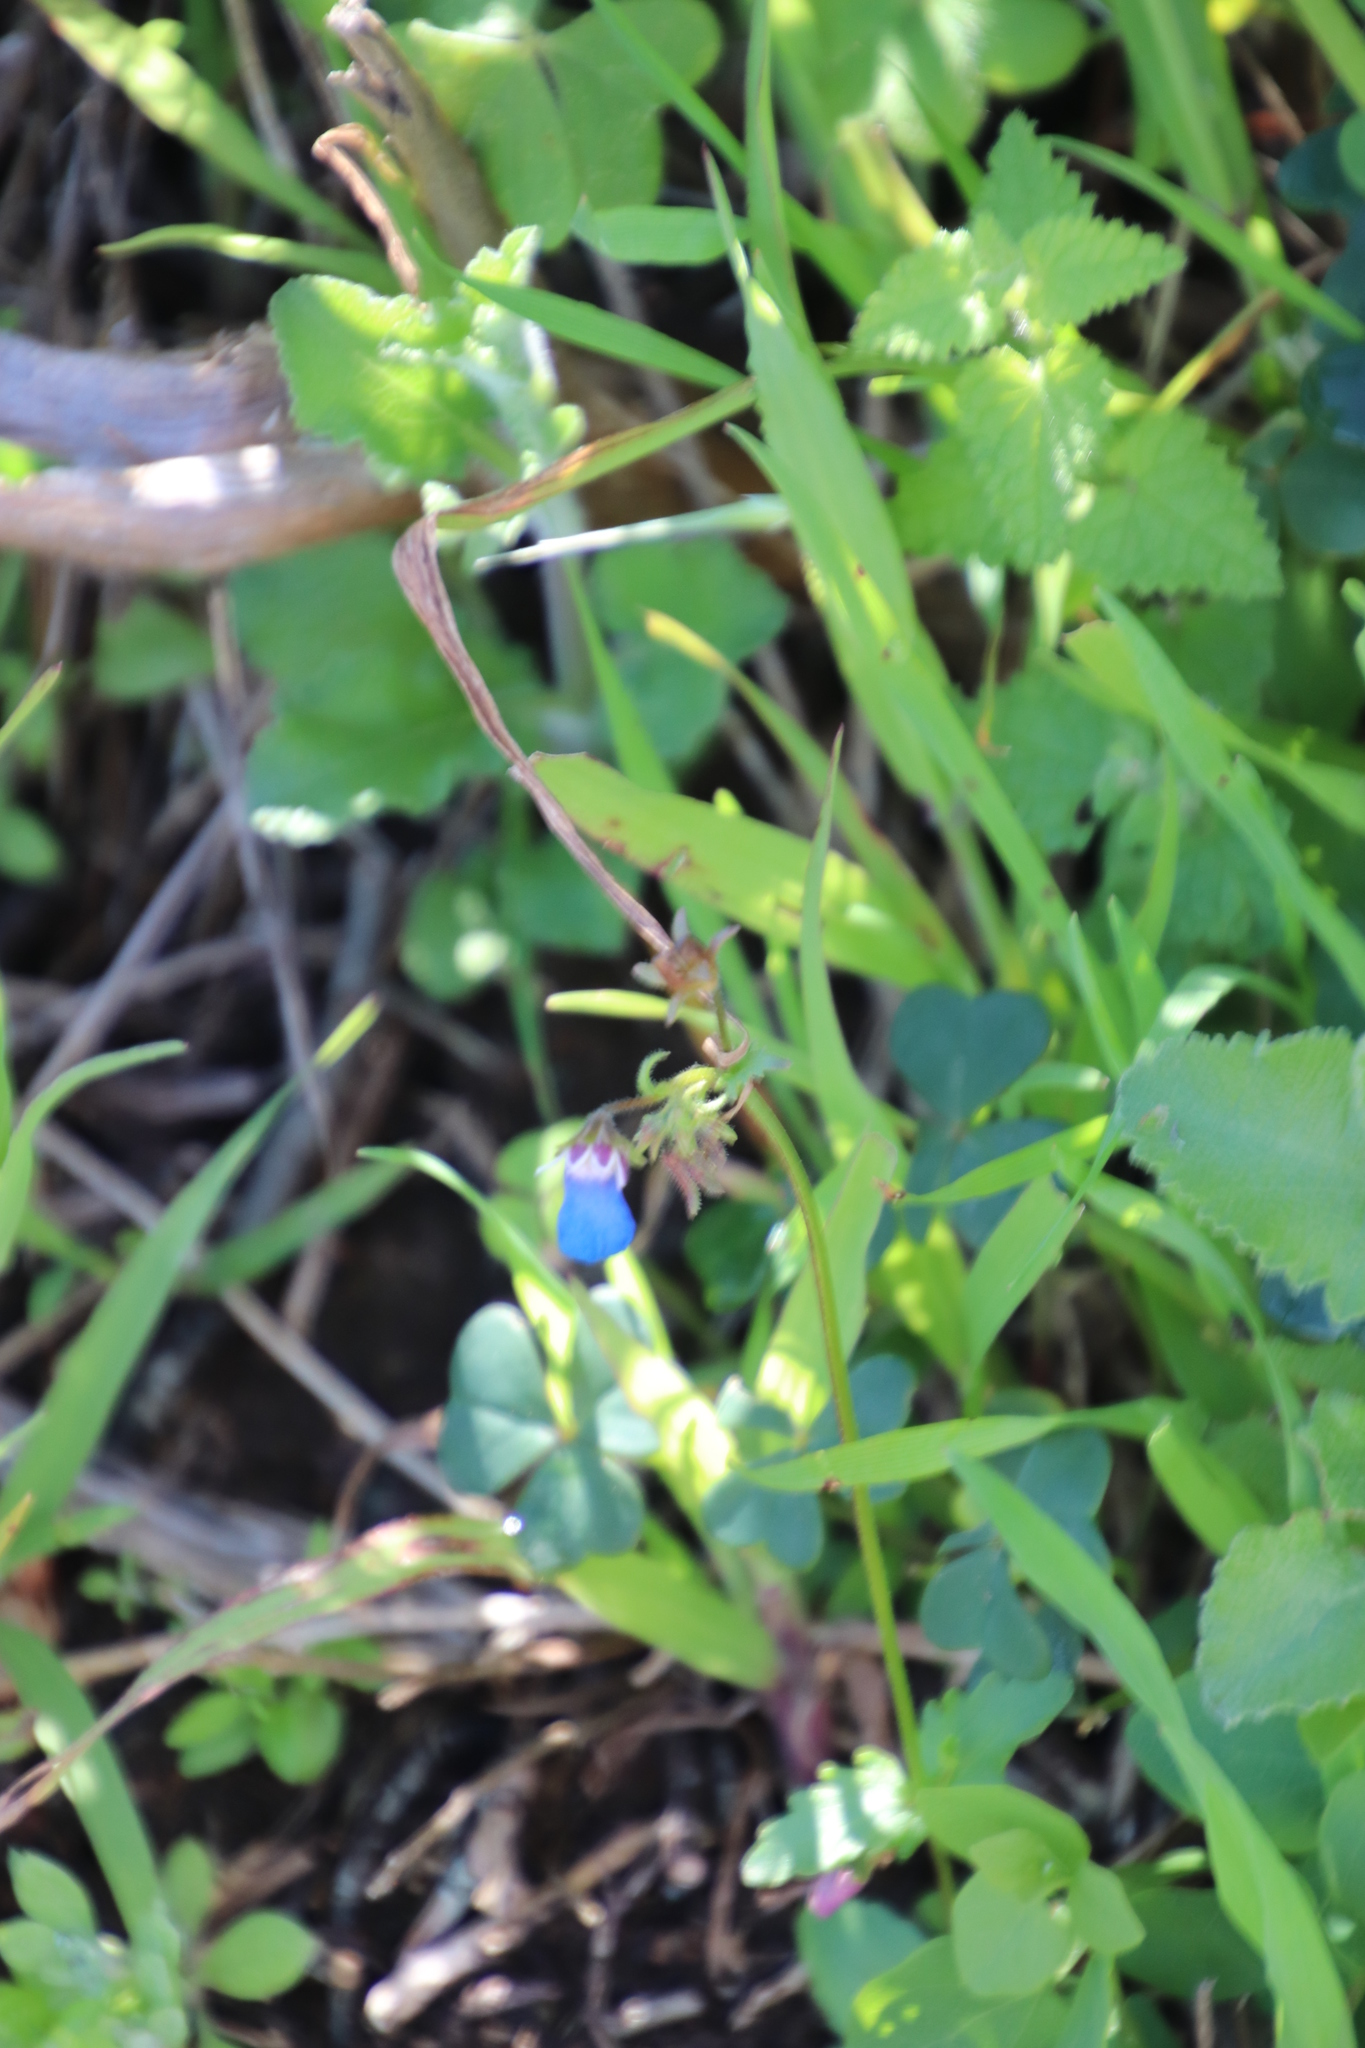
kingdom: Plantae
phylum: Tracheophyta
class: Magnoliopsida
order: Lamiales
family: Scrophulariaceae
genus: Nemesia
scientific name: Nemesia barbata
